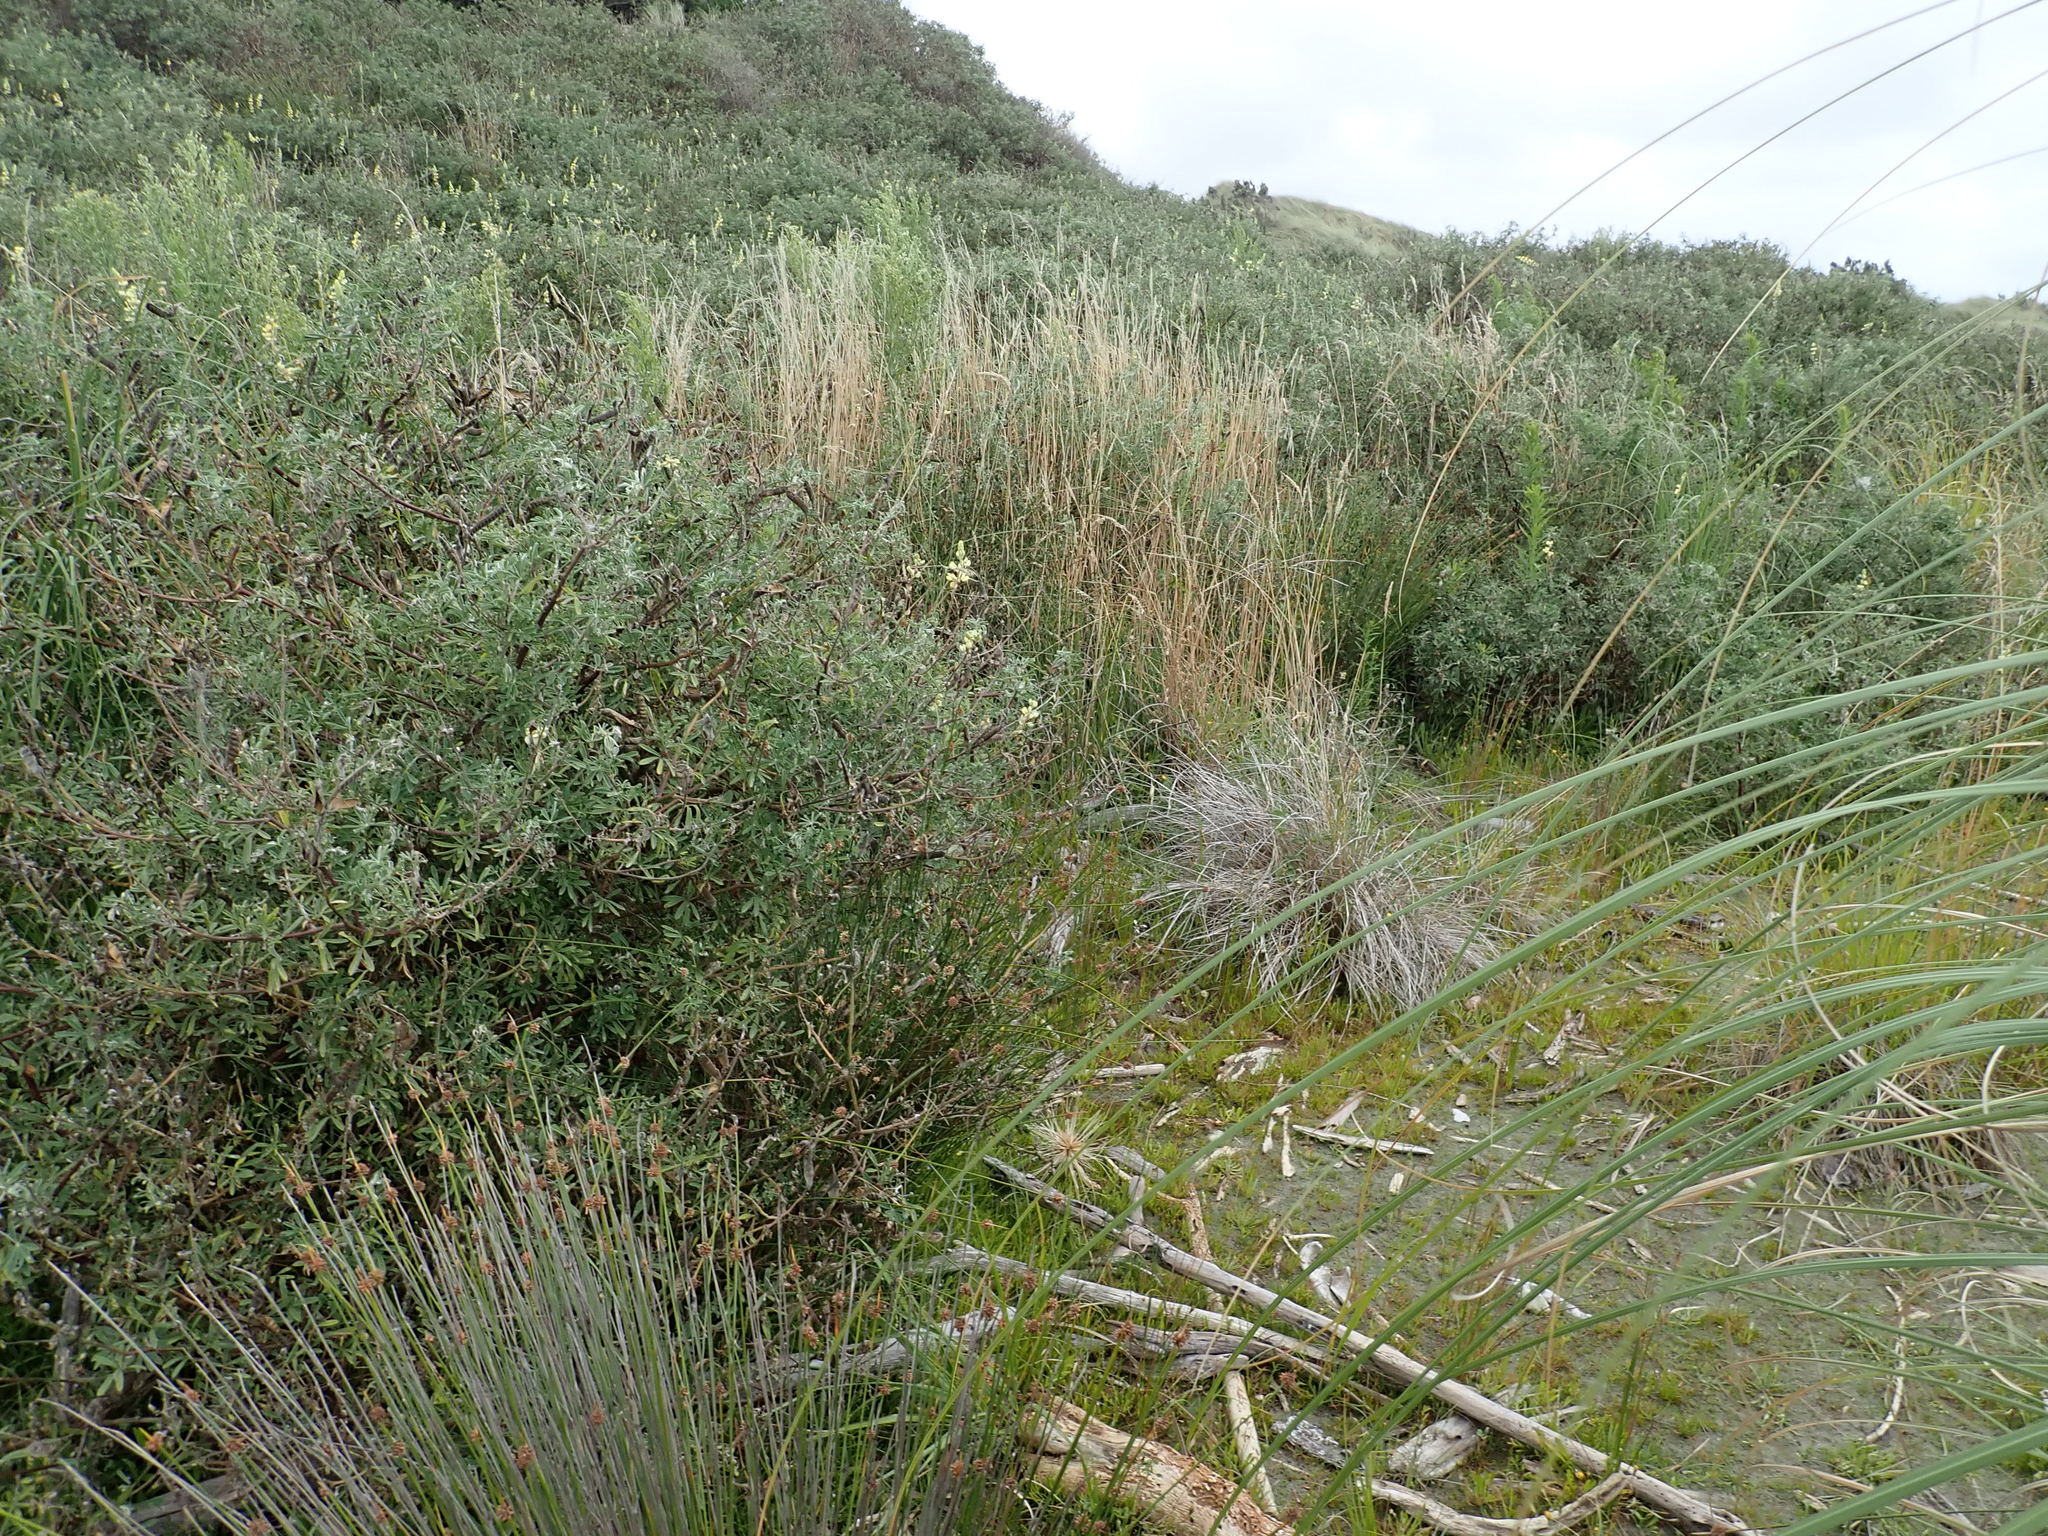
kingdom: Plantae
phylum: Tracheophyta
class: Magnoliopsida
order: Fabales
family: Fabaceae
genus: Lupinus
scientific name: Lupinus arboreus
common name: Yellow bush lupine
